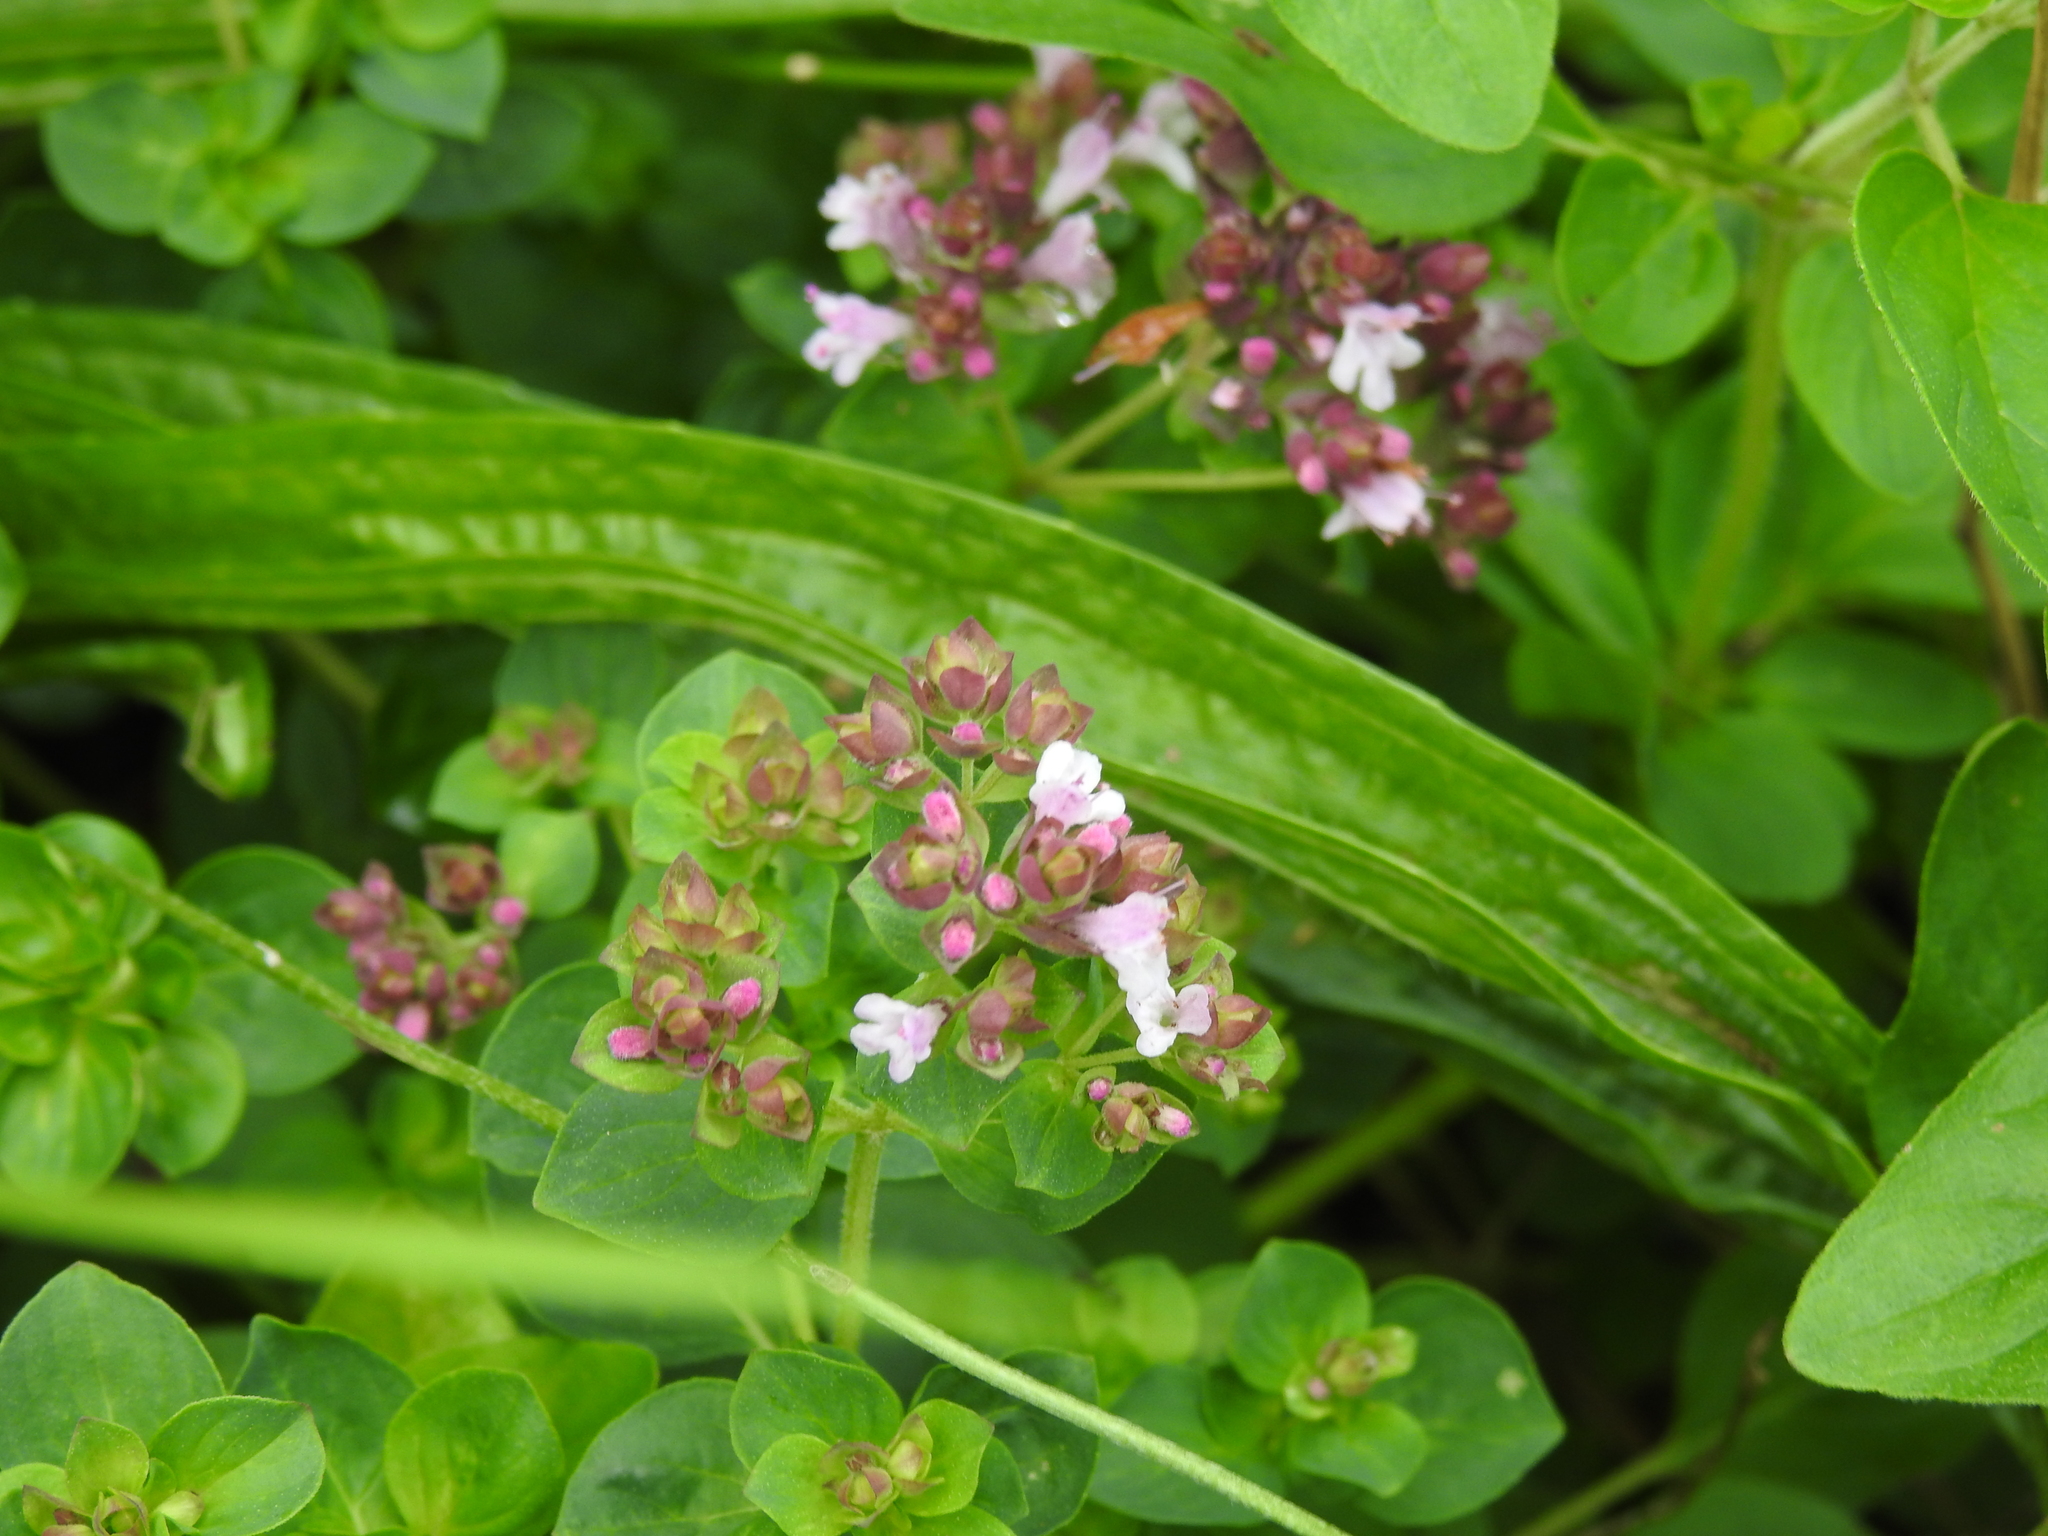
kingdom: Plantae
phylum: Tracheophyta
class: Magnoliopsida
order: Lamiales
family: Lamiaceae
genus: Origanum
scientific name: Origanum vulgare
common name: Wild marjoram
